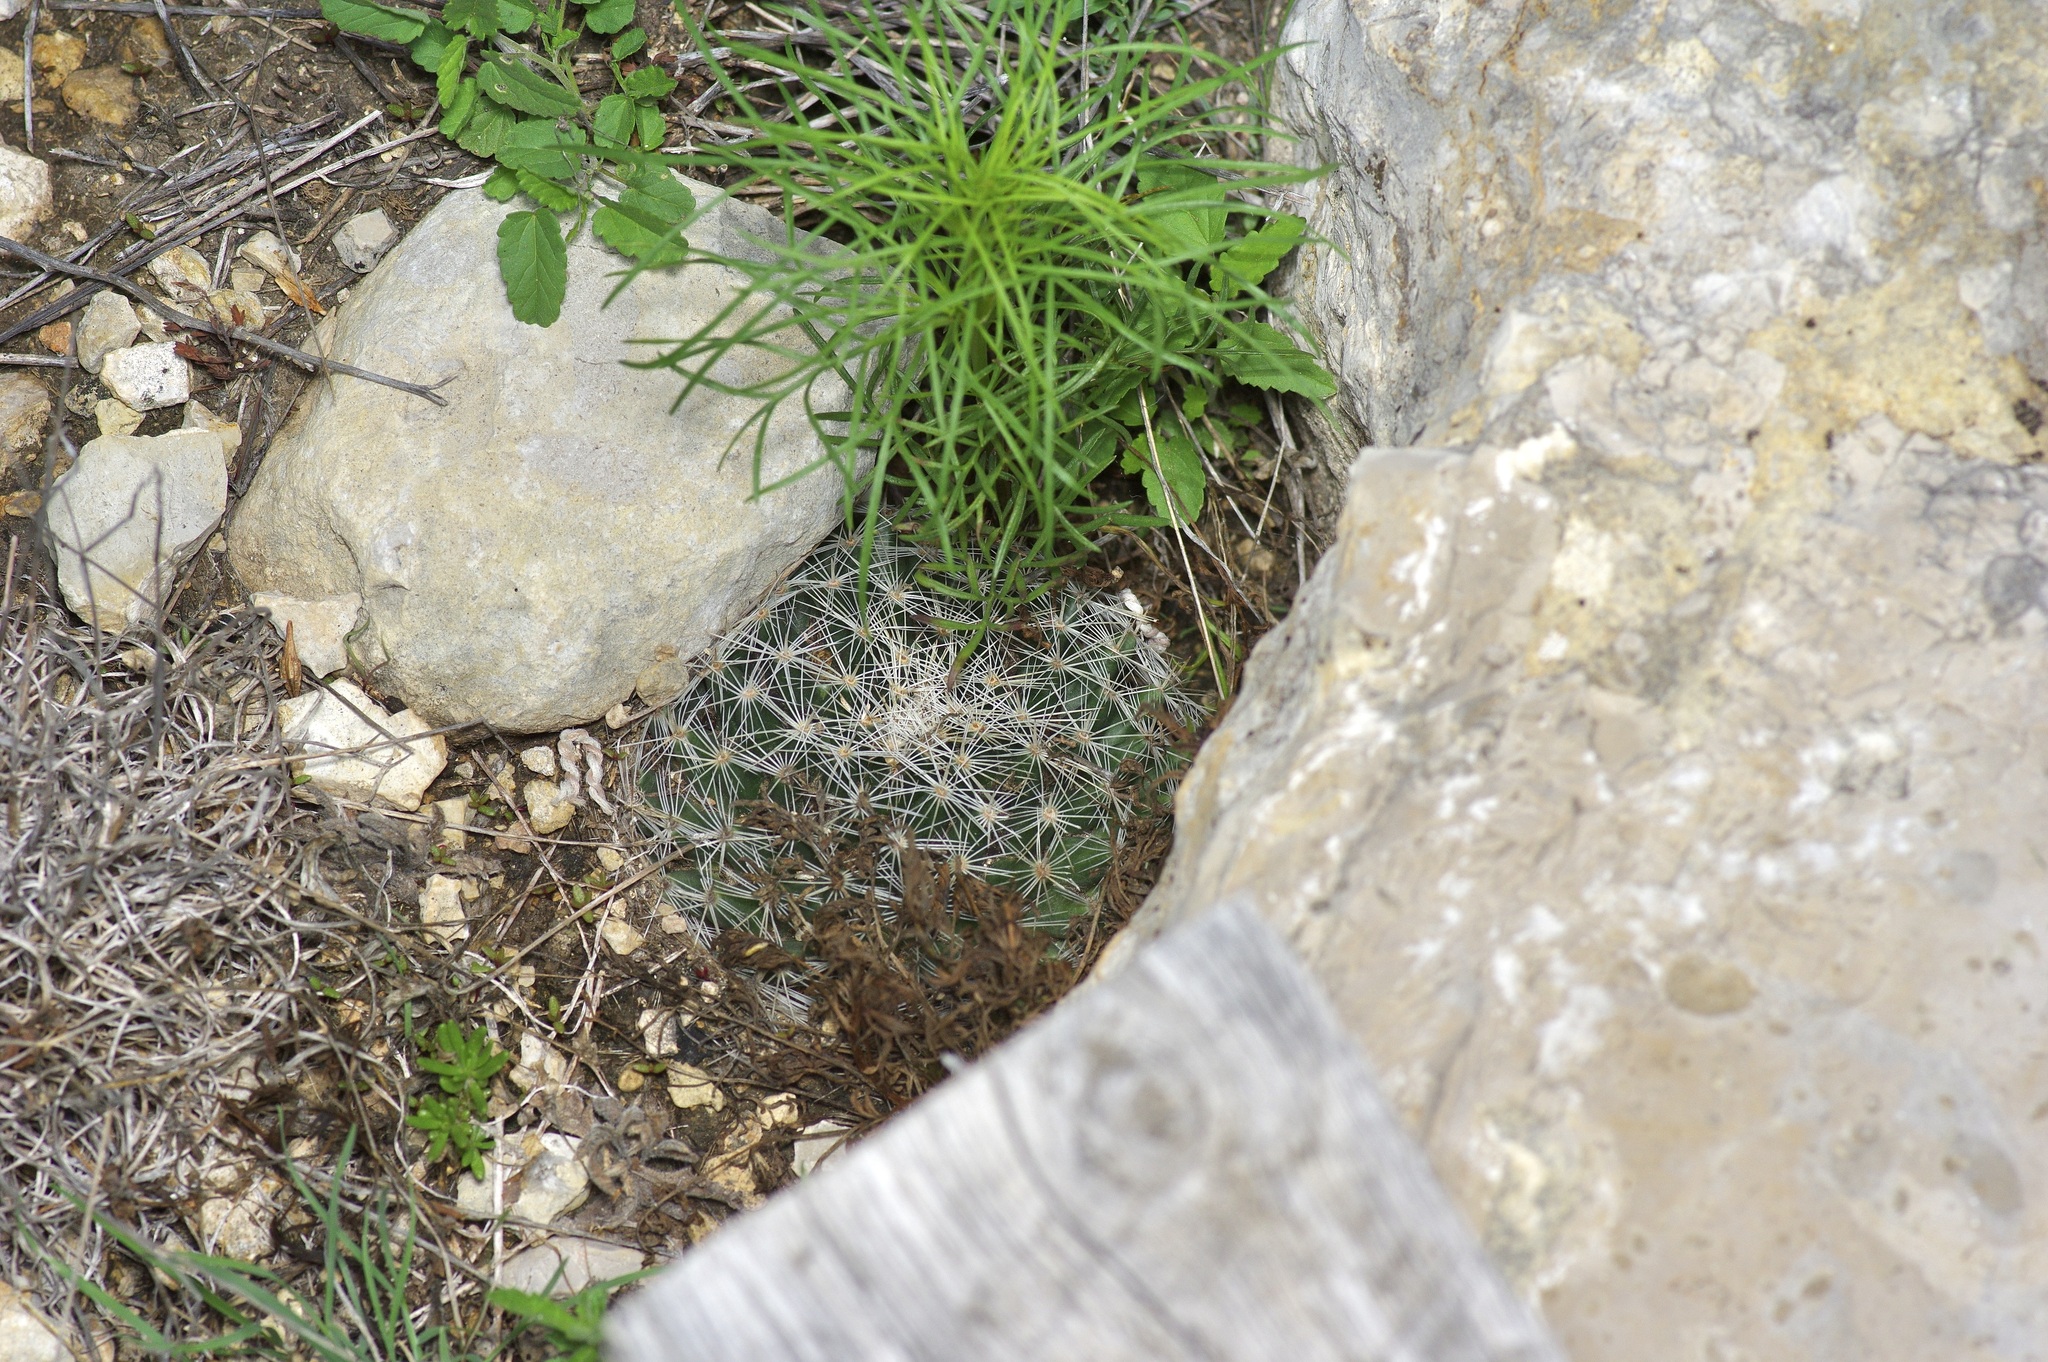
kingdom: Plantae
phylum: Tracheophyta
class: Magnoliopsida
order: Caryophyllales
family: Cactaceae
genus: Mammillaria
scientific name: Mammillaria heyderi
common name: Little nipple cactus
